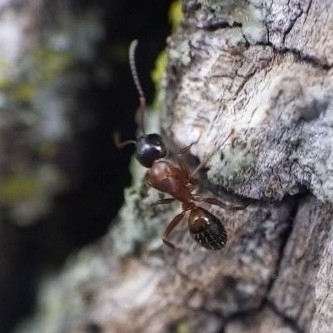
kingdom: Animalia
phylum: Arthropoda
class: Insecta
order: Hymenoptera
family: Formicidae
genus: Camponotus
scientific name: Camponotus nearcticus
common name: Smaller carpenter ant
